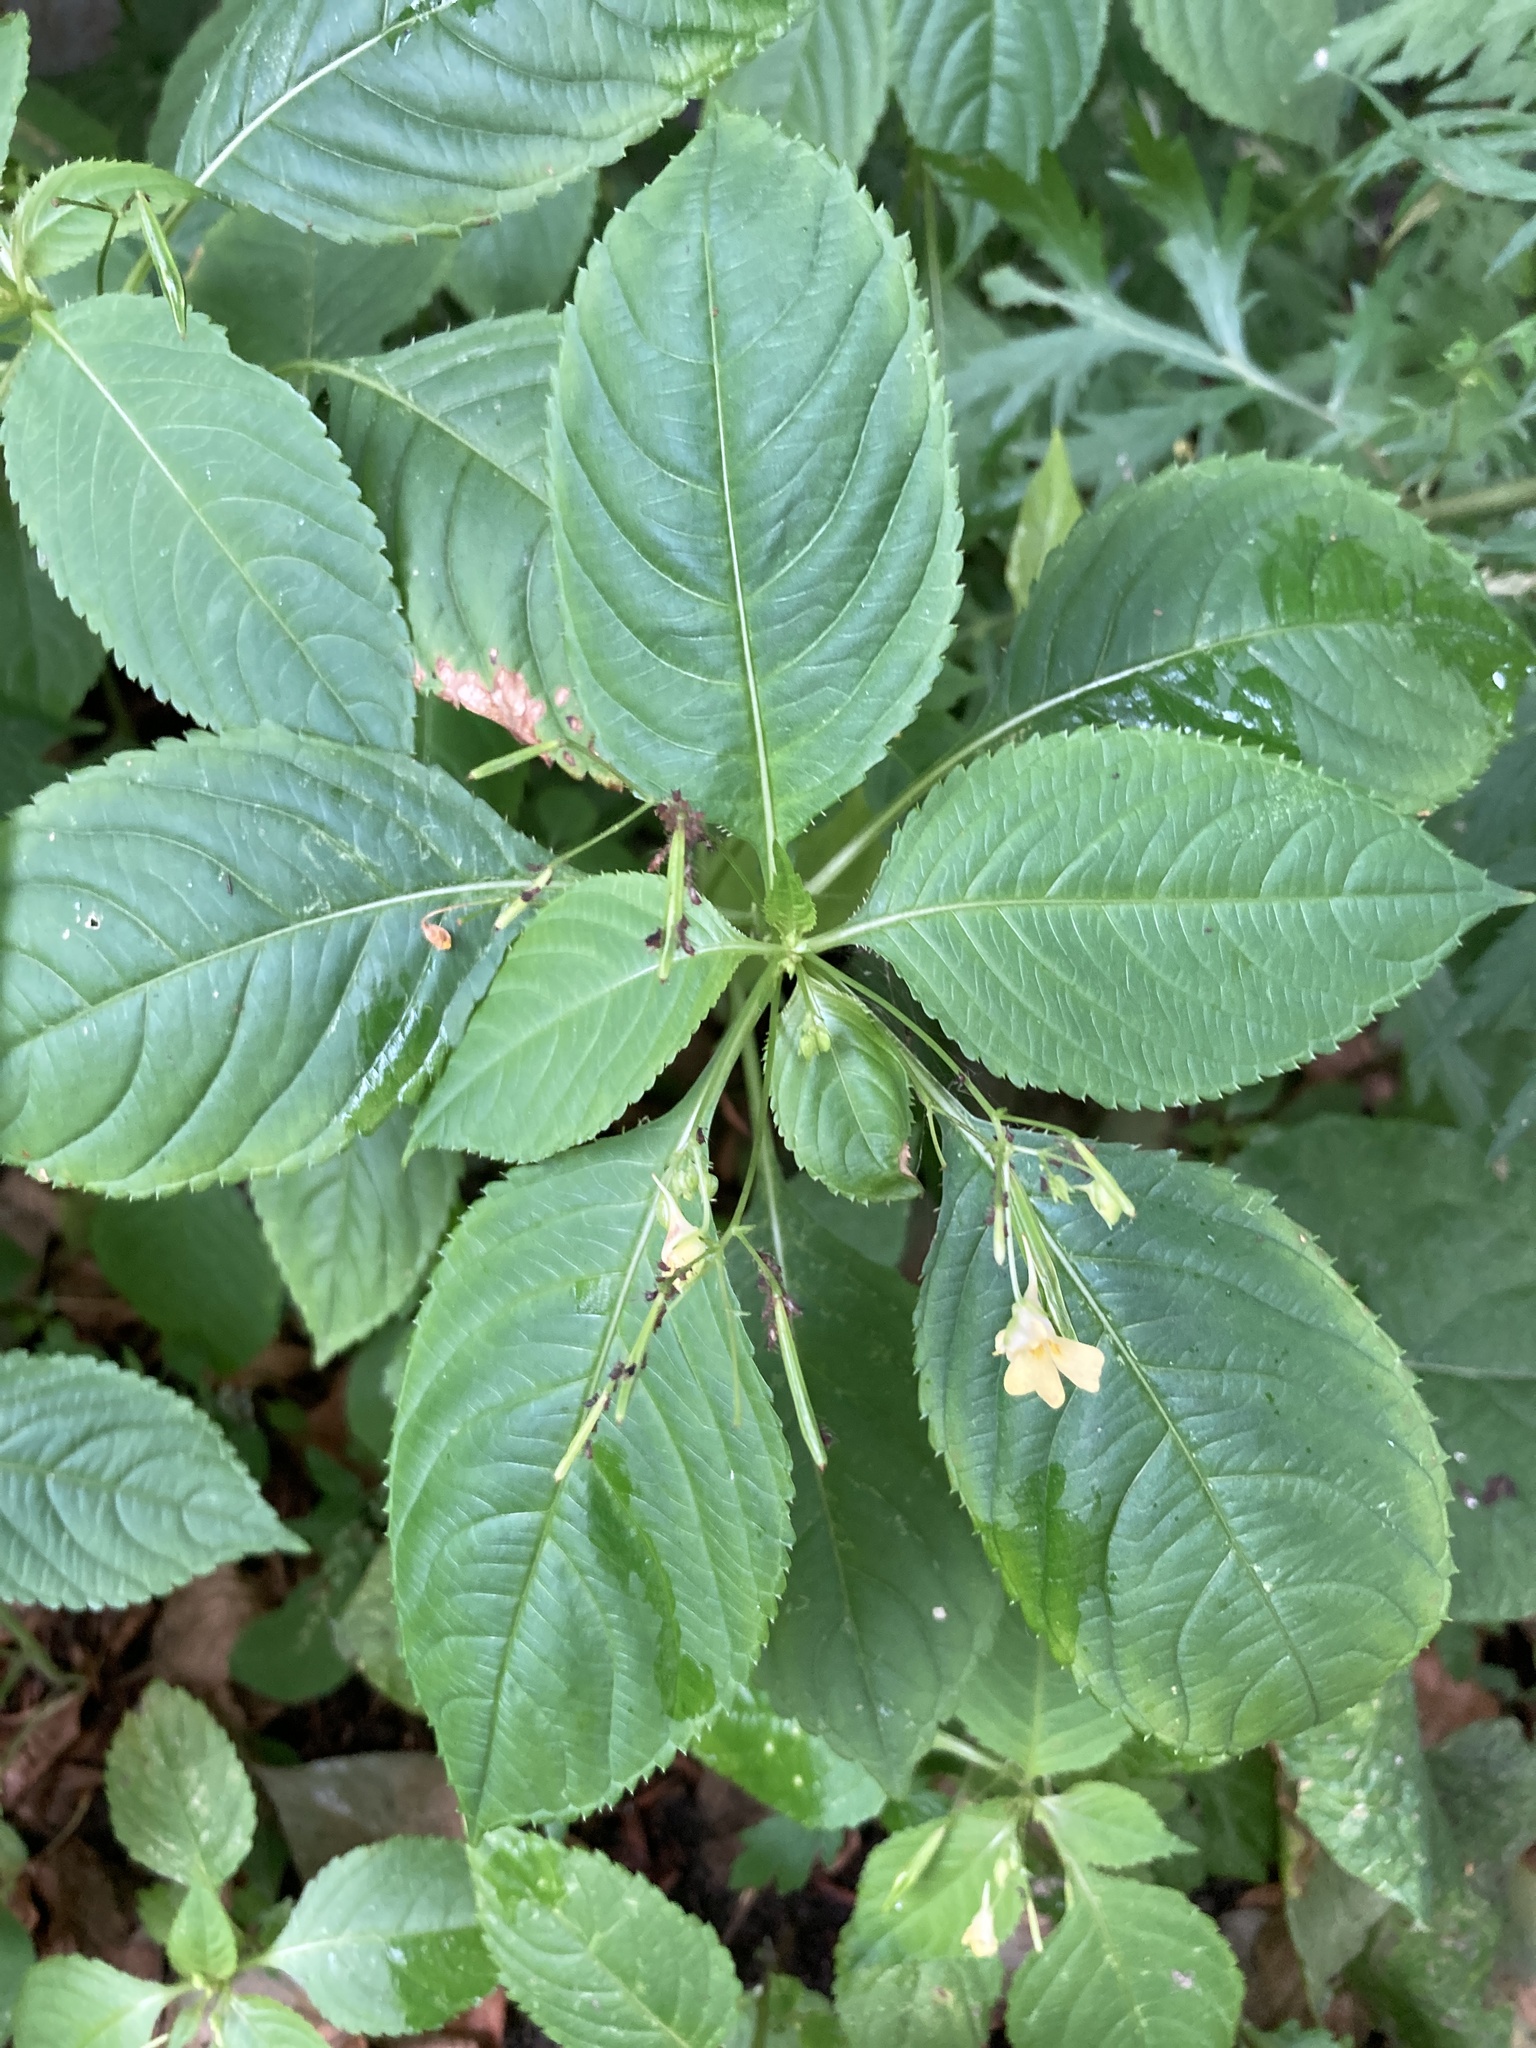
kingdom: Plantae
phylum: Tracheophyta
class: Magnoliopsida
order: Ericales
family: Balsaminaceae
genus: Impatiens
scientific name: Impatiens parviflora
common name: Small balsam
